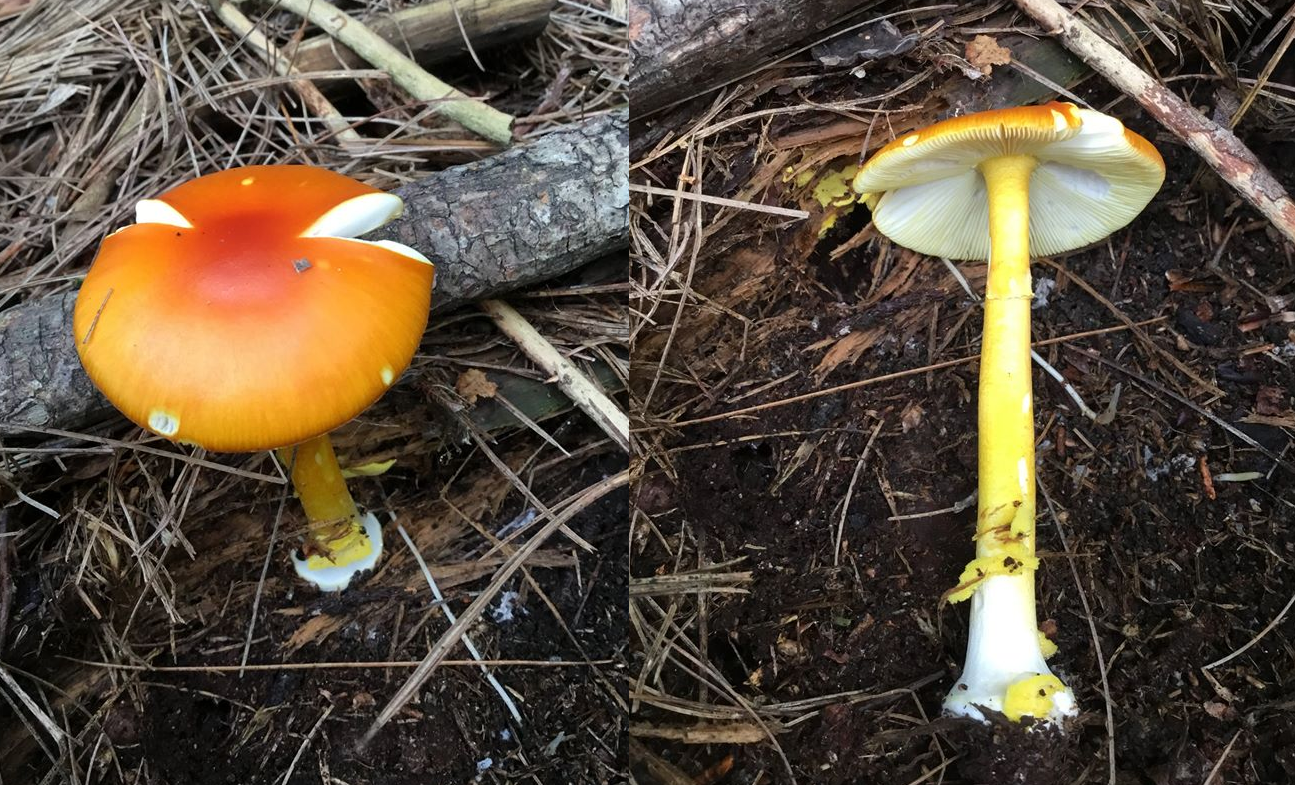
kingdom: Fungi
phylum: Basidiomycota
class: Agaricomycetes
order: Agaricales
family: Amanitaceae
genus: Amanita
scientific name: Amanita erythrocephala
